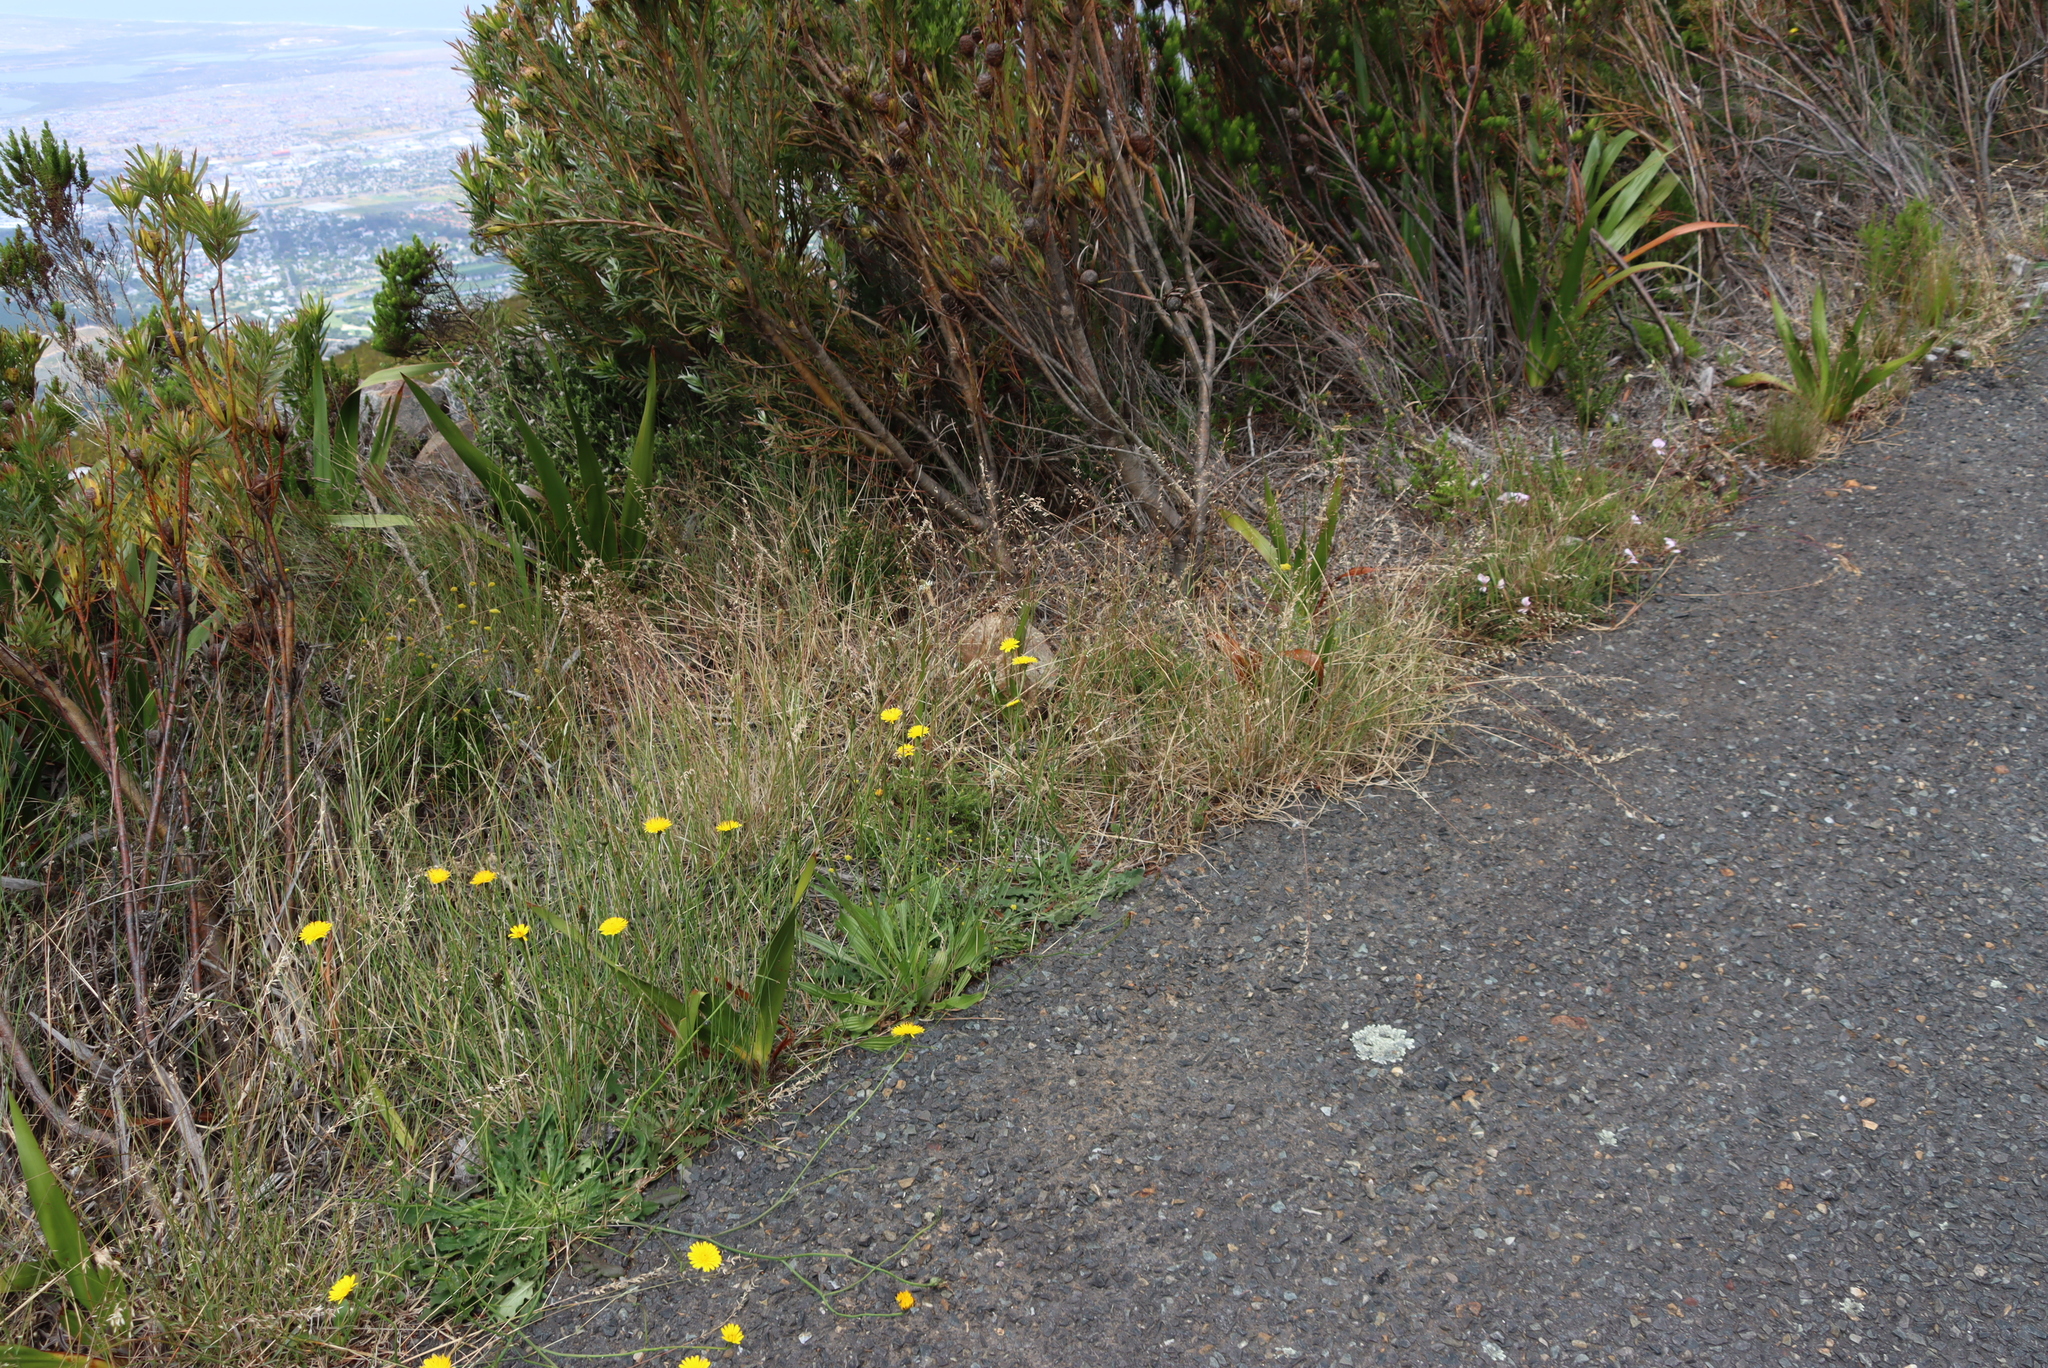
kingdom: Plantae
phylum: Tracheophyta
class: Magnoliopsida
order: Asterales
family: Asteraceae
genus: Hypochaeris
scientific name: Hypochaeris radicata
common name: Flatweed
